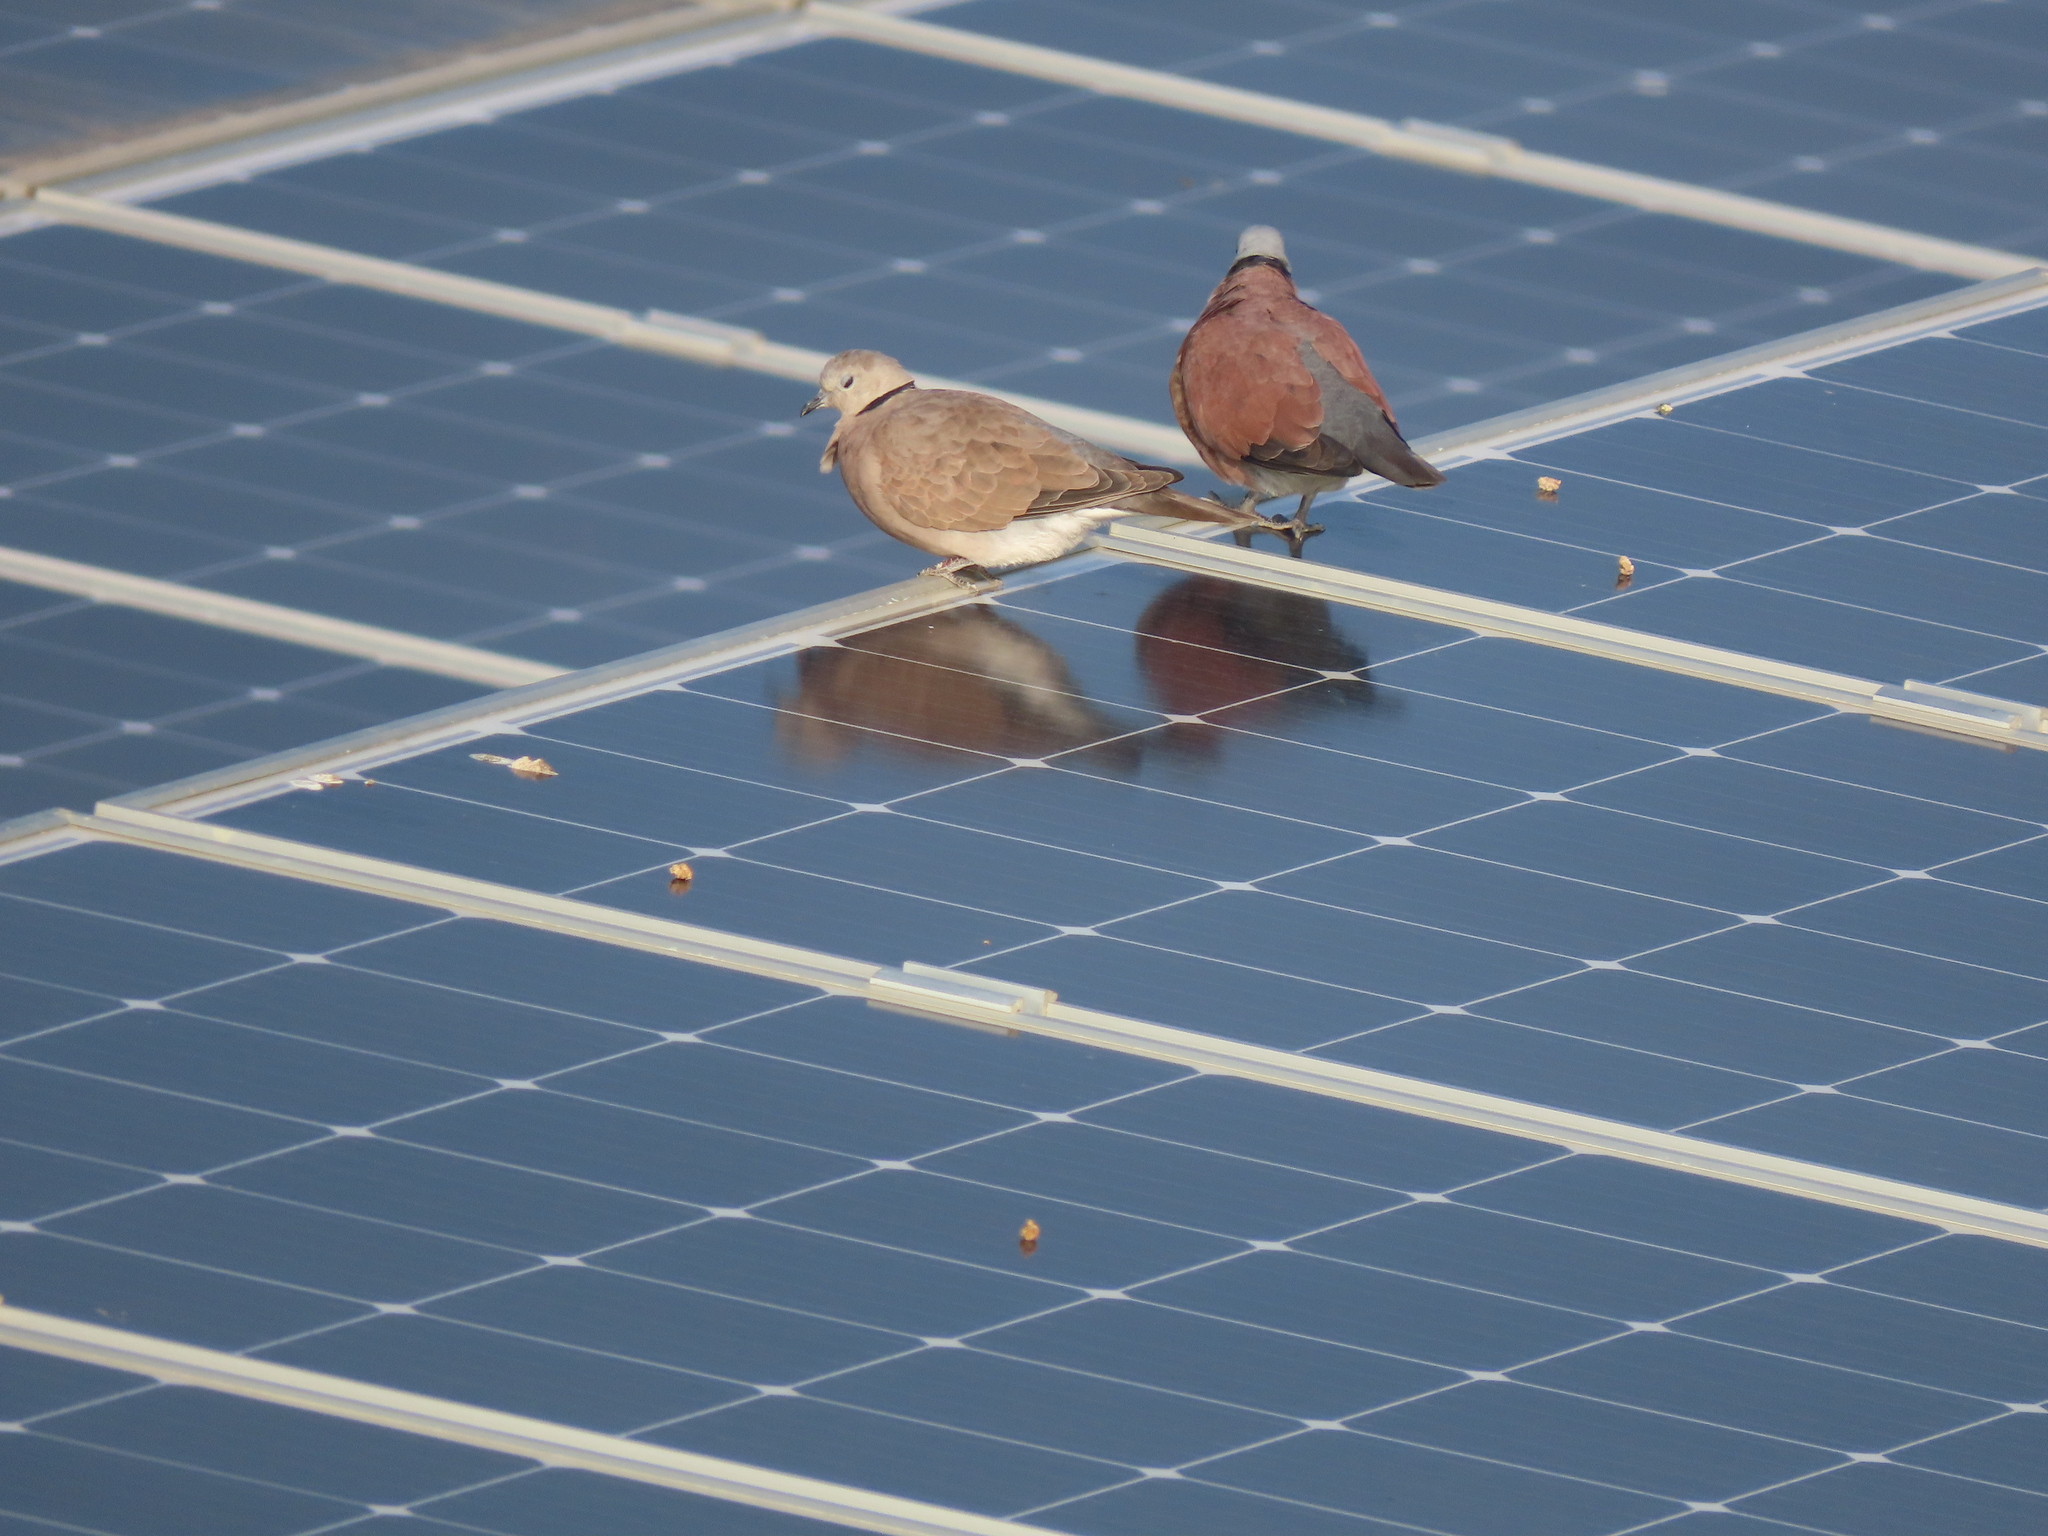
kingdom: Animalia
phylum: Chordata
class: Aves
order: Columbiformes
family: Columbidae
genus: Streptopelia
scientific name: Streptopelia tranquebarica
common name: Red turtle dove
